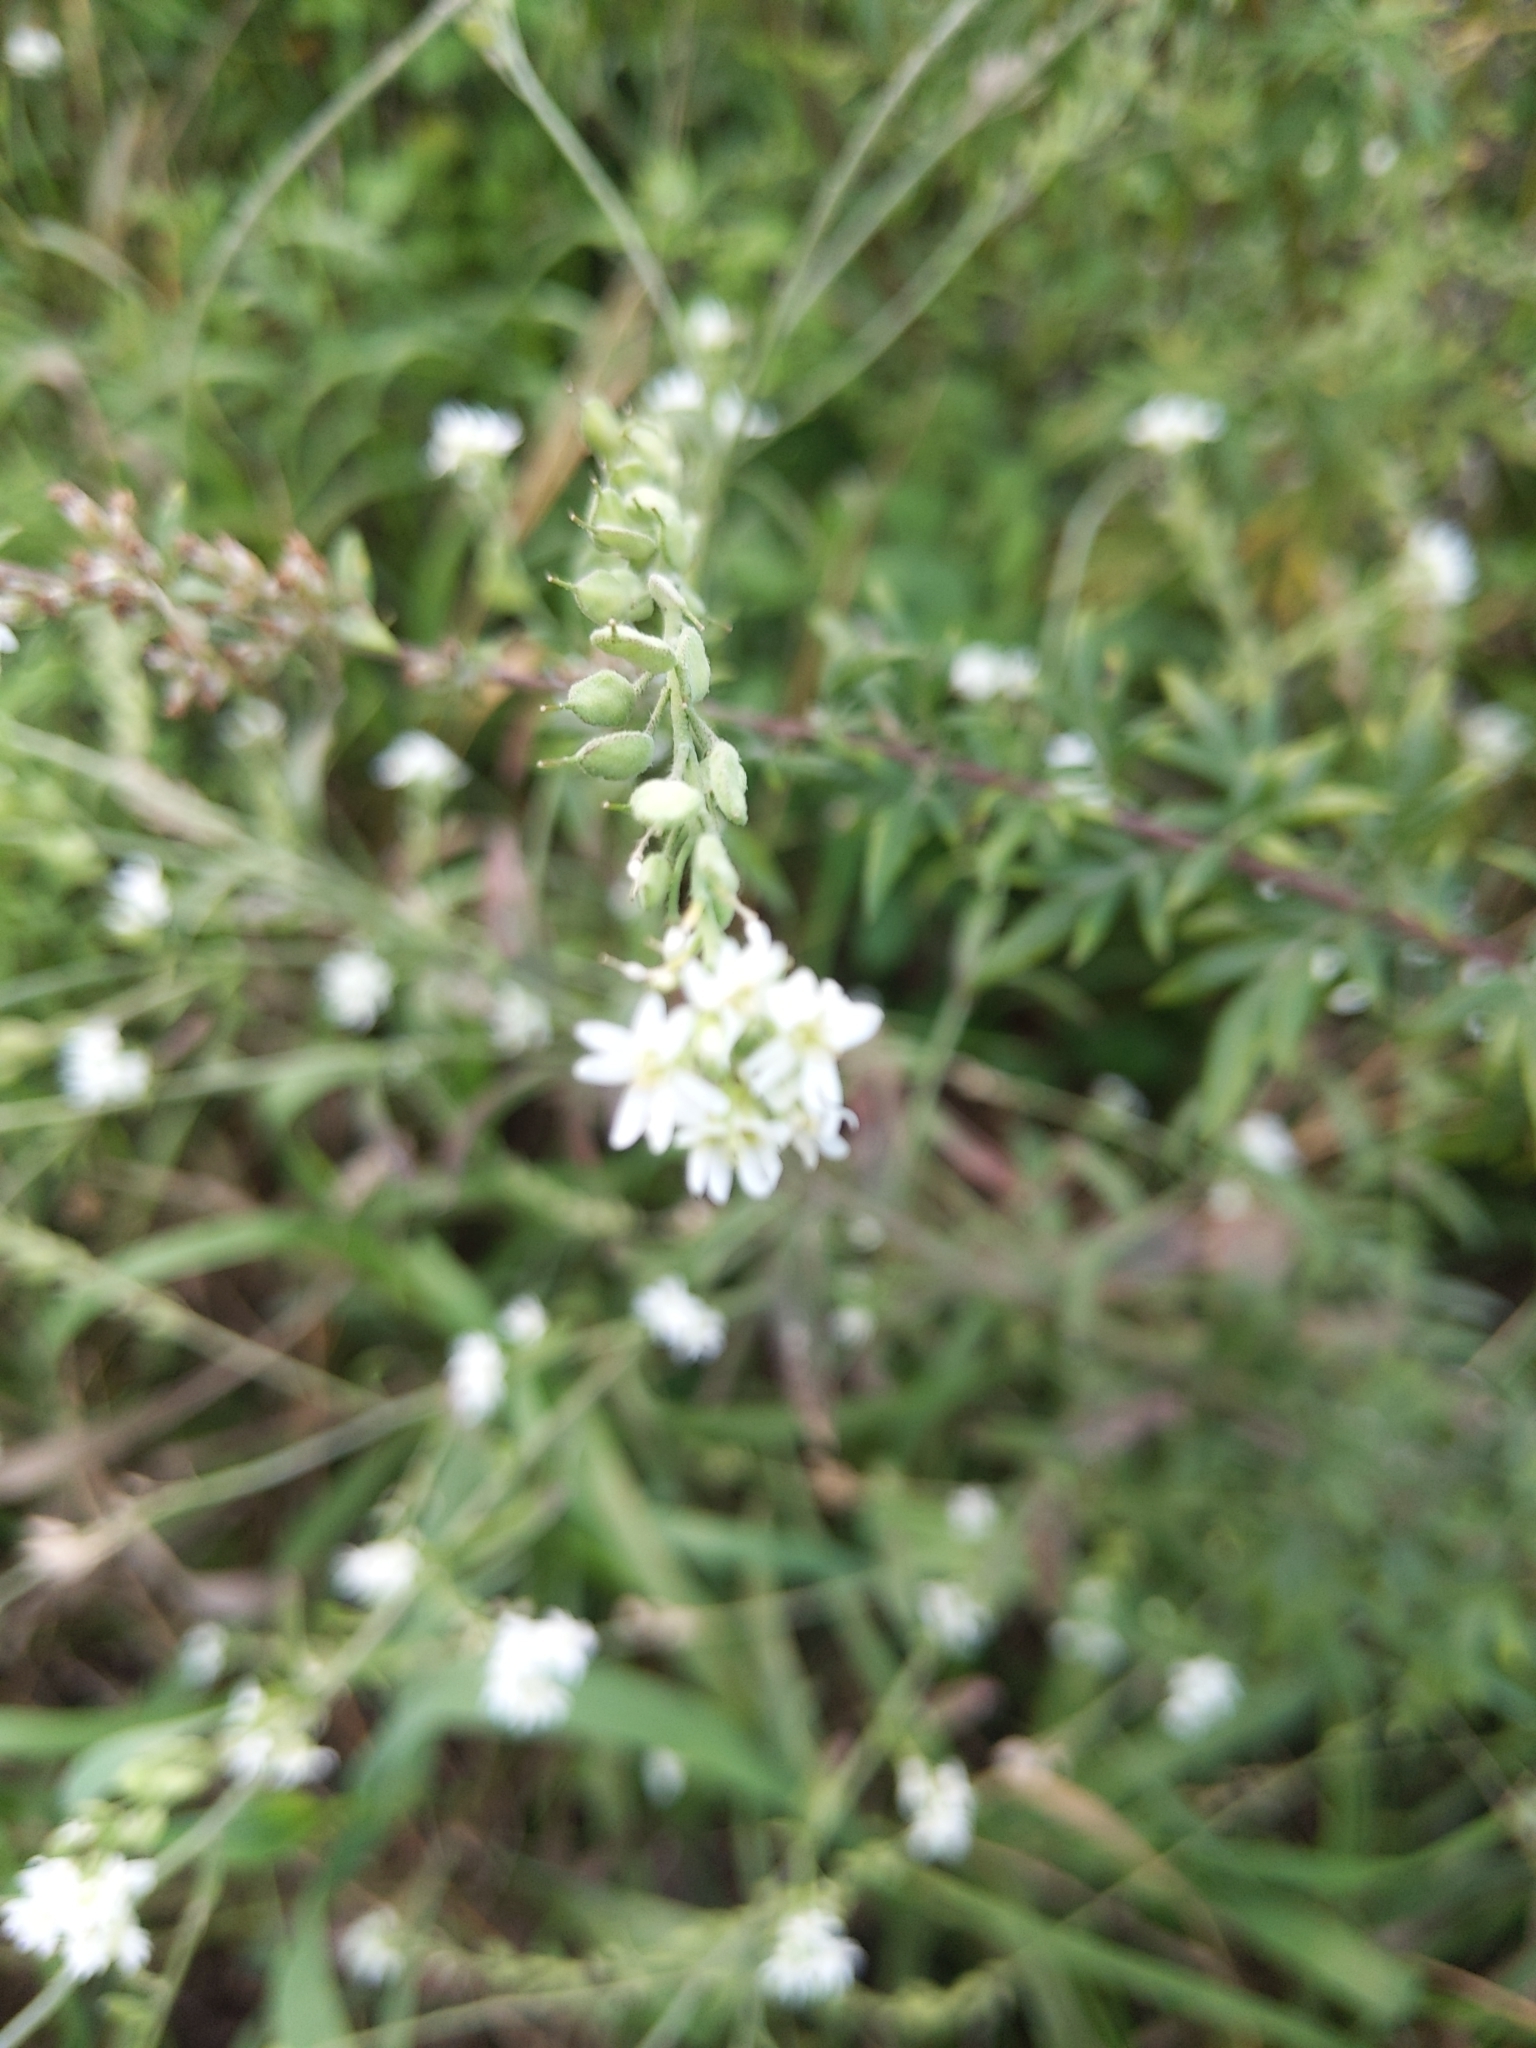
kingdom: Plantae
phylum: Tracheophyta
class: Magnoliopsida
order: Brassicales
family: Brassicaceae
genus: Berteroa
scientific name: Berteroa incana
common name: Hoary alison
